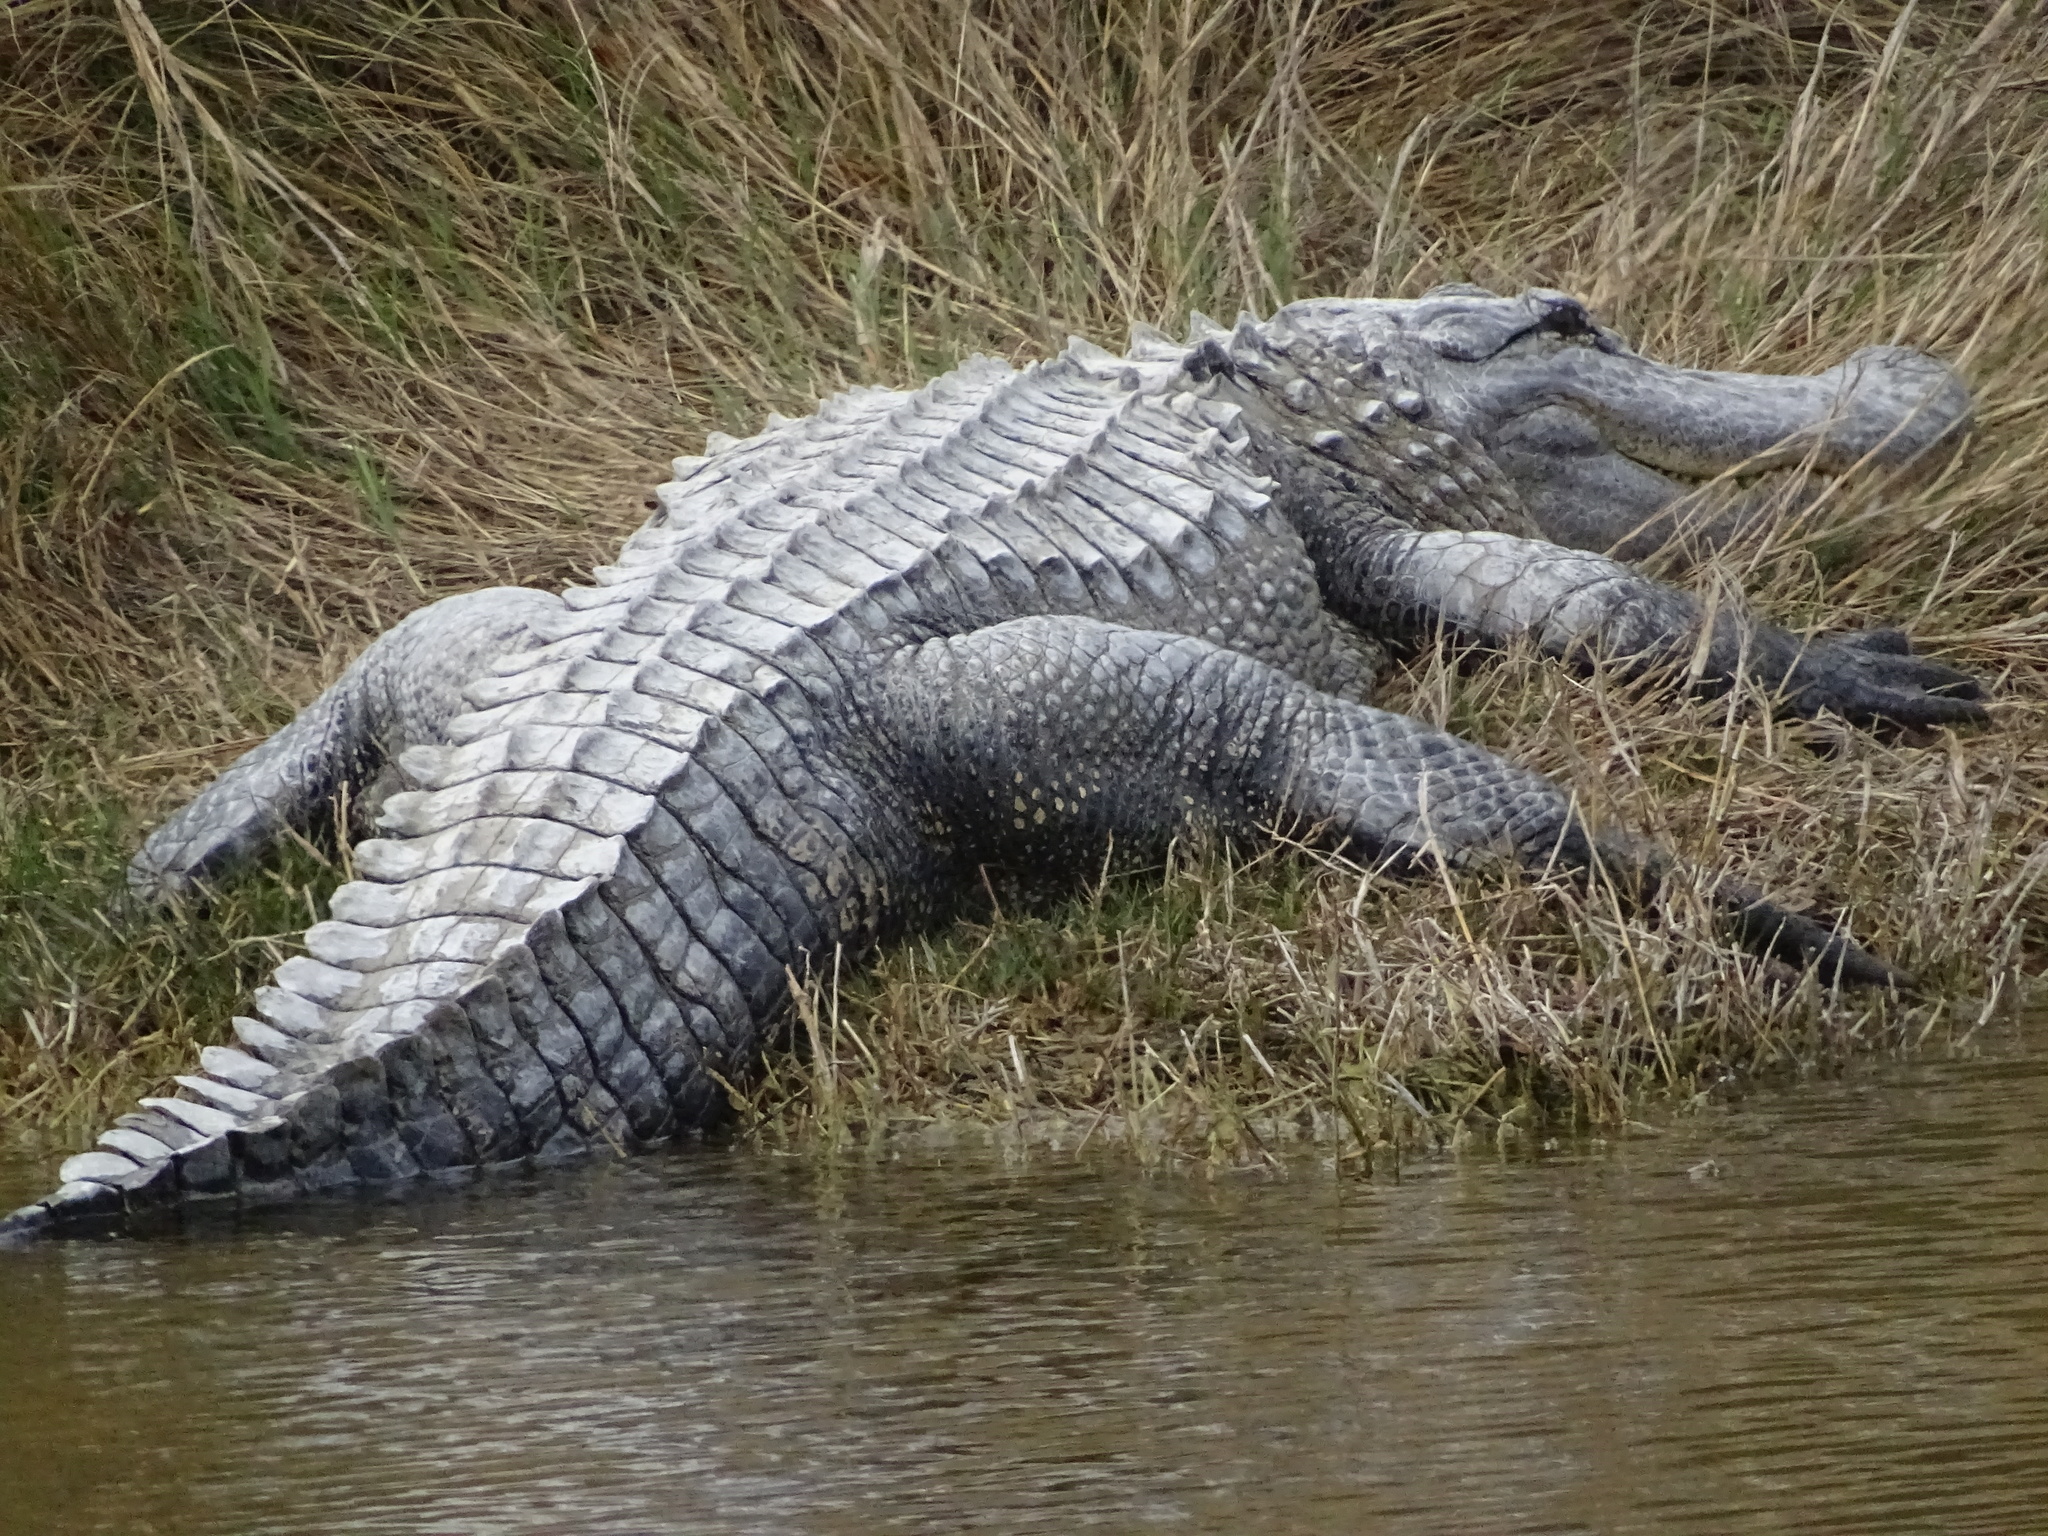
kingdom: Animalia
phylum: Chordata
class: Crocodylia
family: Alligatoridae
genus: Alligator
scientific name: Alligator mississippiensis
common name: American alligator
